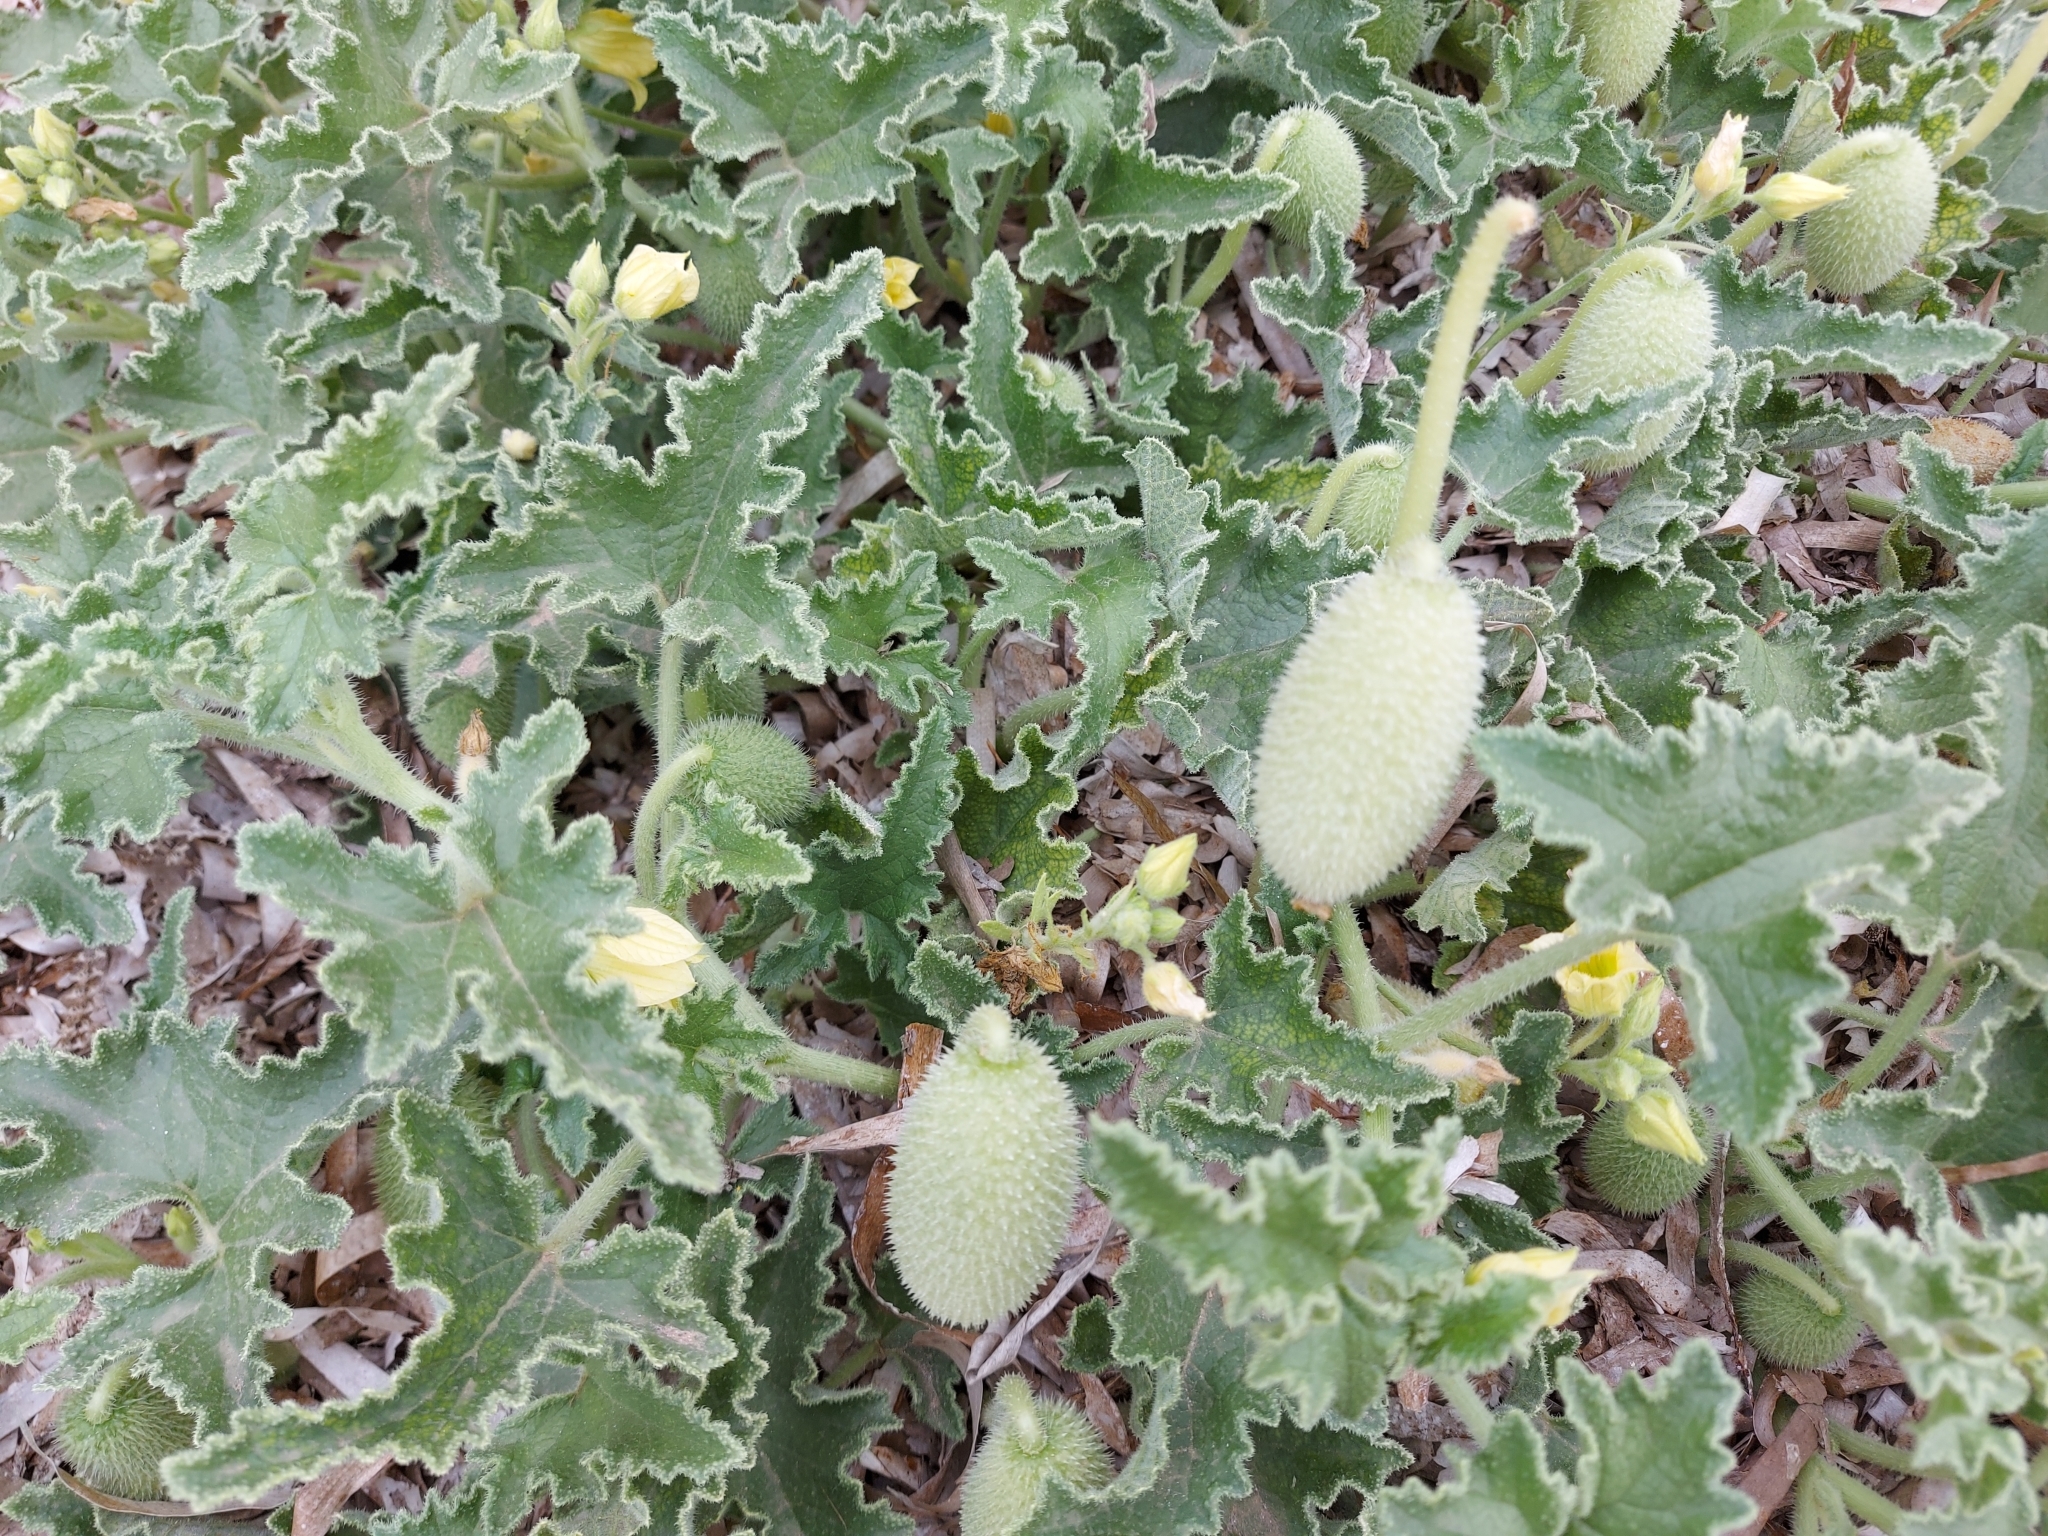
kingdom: Plantae
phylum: Tracheophyta
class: Magnoliopsida
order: Cucurbitales
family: Cucurbitaceae
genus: Ecballium
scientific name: Ecballium elaterium
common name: Squirting cucumber
